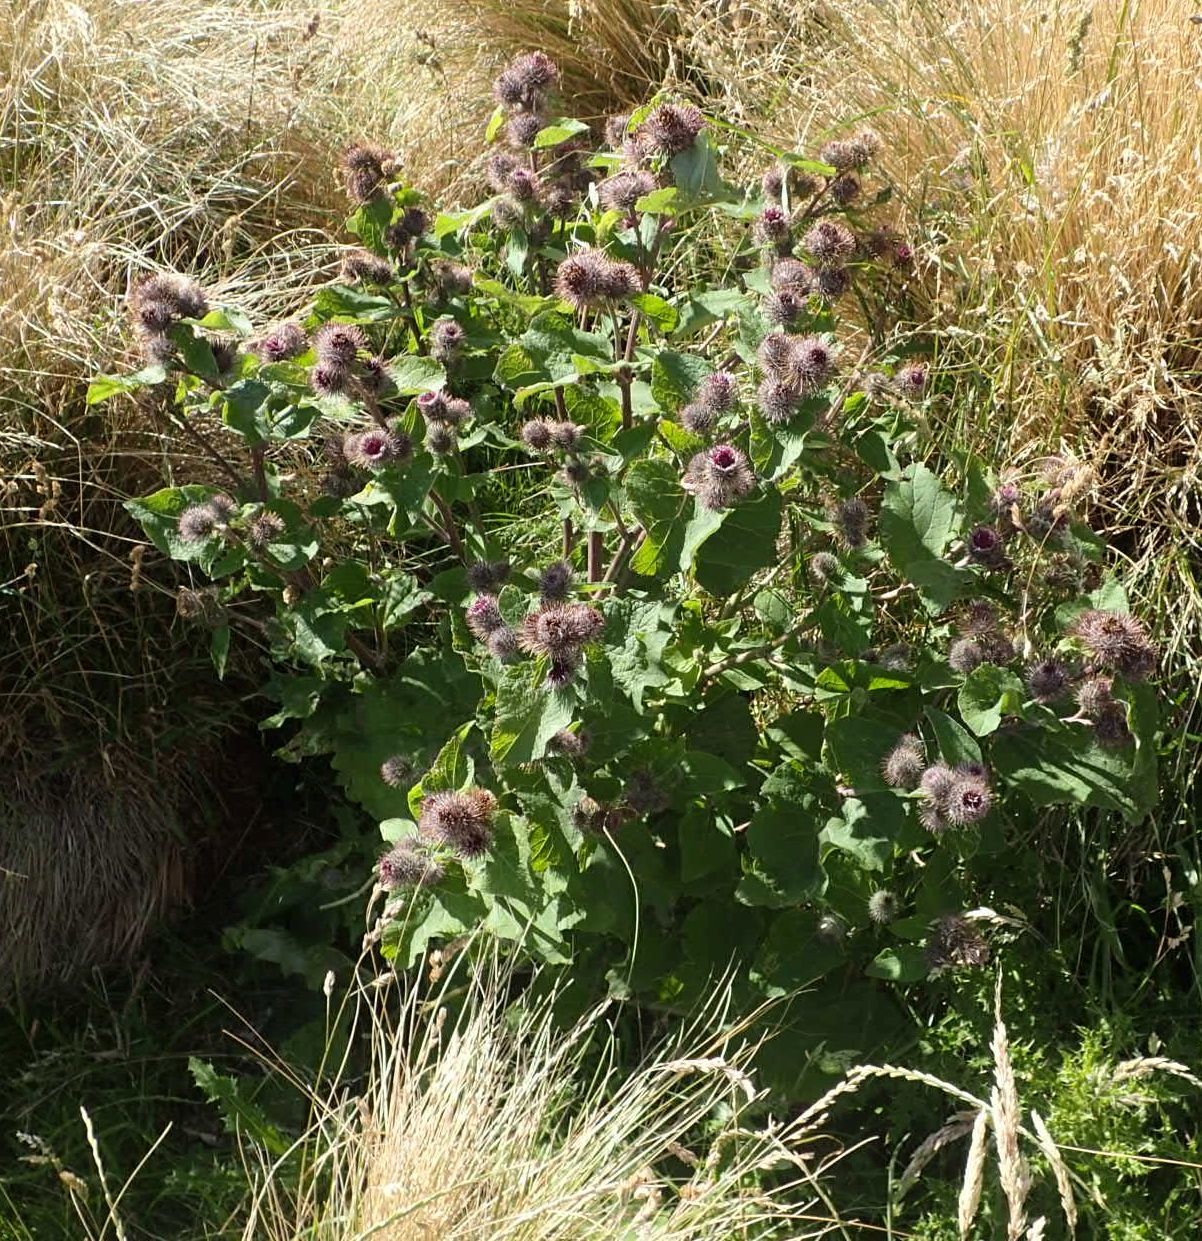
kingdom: Plantae
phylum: Tracheophyta
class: Magnoliopsida
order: Asterales
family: Asteraceae
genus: Arctium
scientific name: Arctium minus
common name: Lesser burdock
